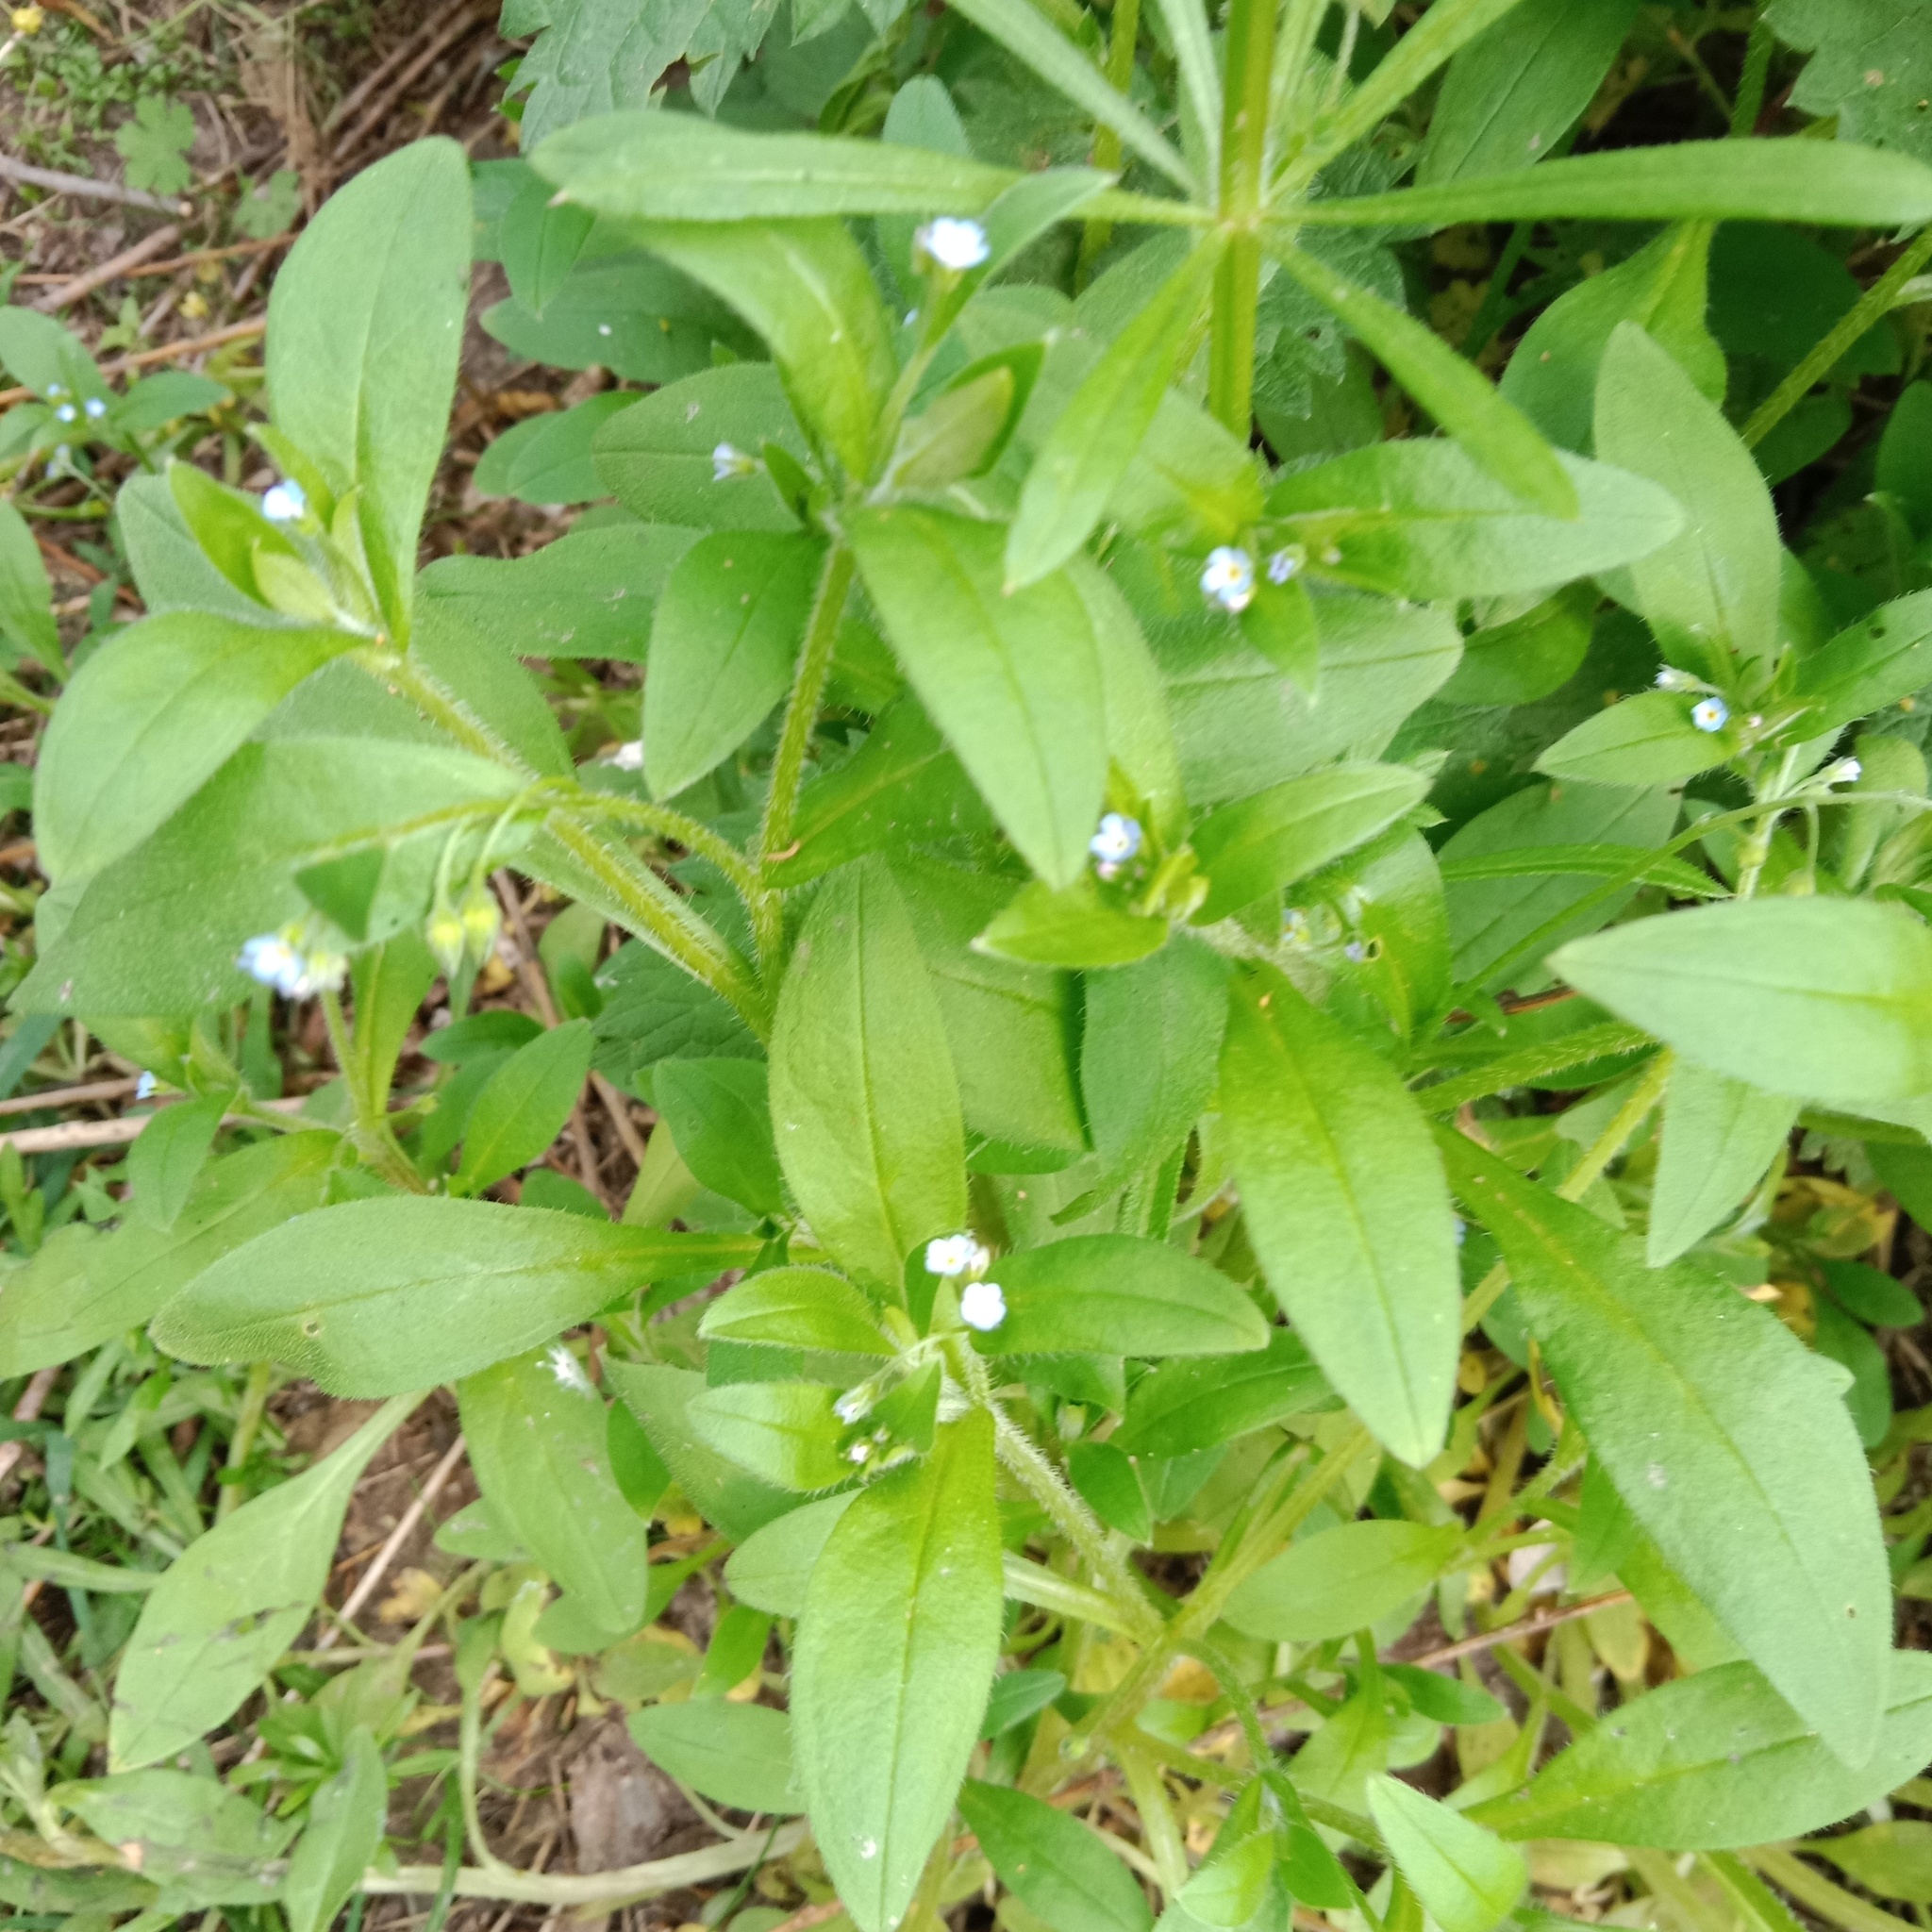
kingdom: Plantae
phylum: Tracheophyta
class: Magnoliopsida
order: Boraginales
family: Boraginaceae
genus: Myosotis
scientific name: Myosotis sparsiflora
